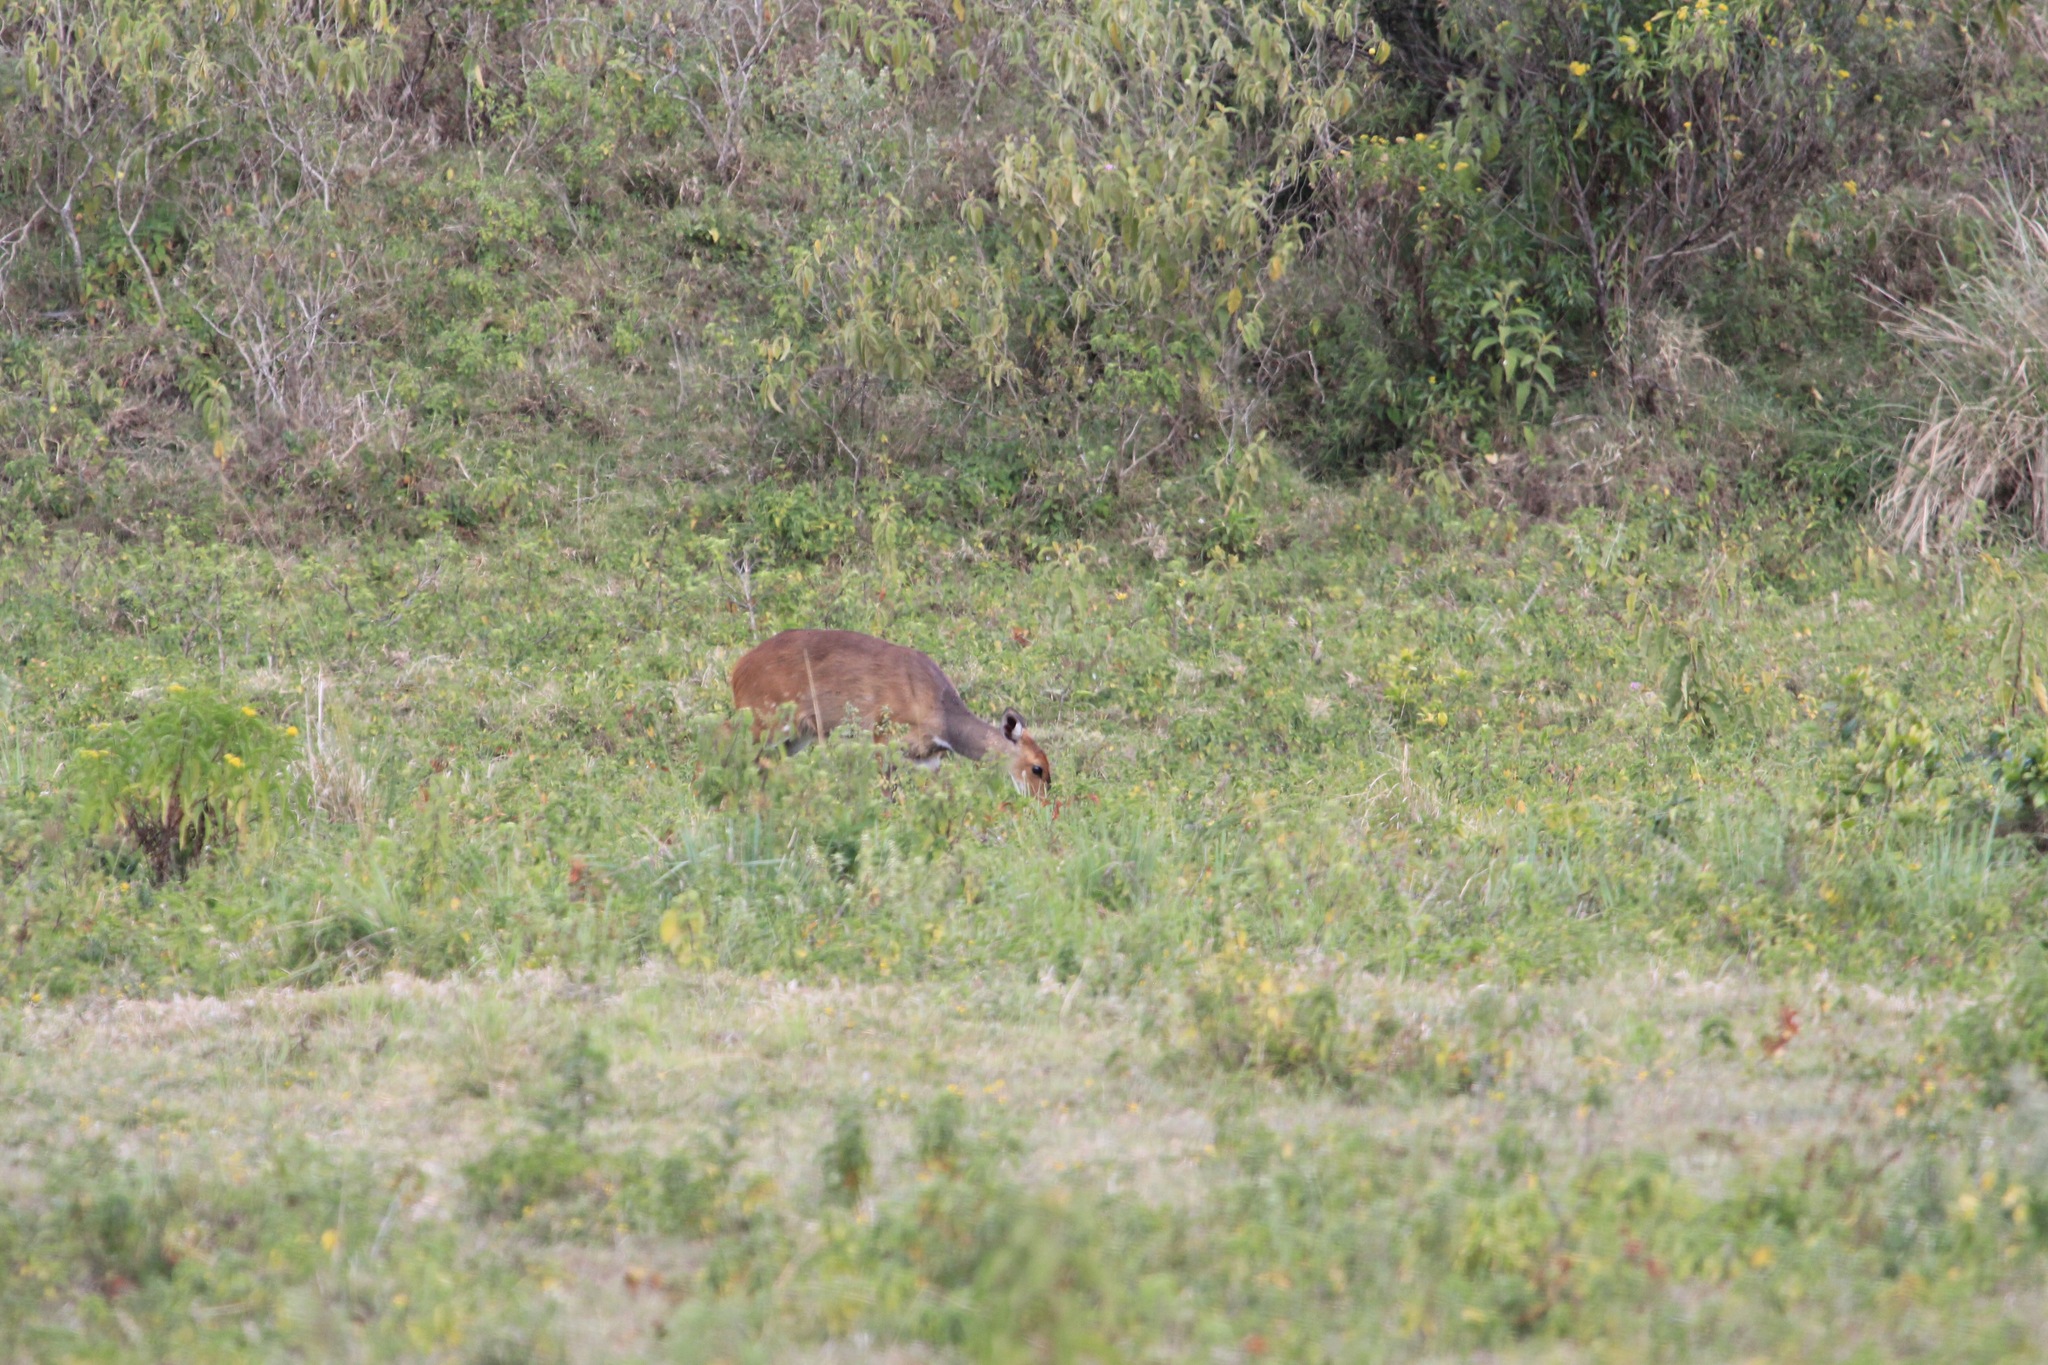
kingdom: Animalia
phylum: Chordata
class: Mammalia
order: Artiodactyla
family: Bovidae
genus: Tragelaphus
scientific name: Tragelaphus scriptus
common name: Bushbuck
